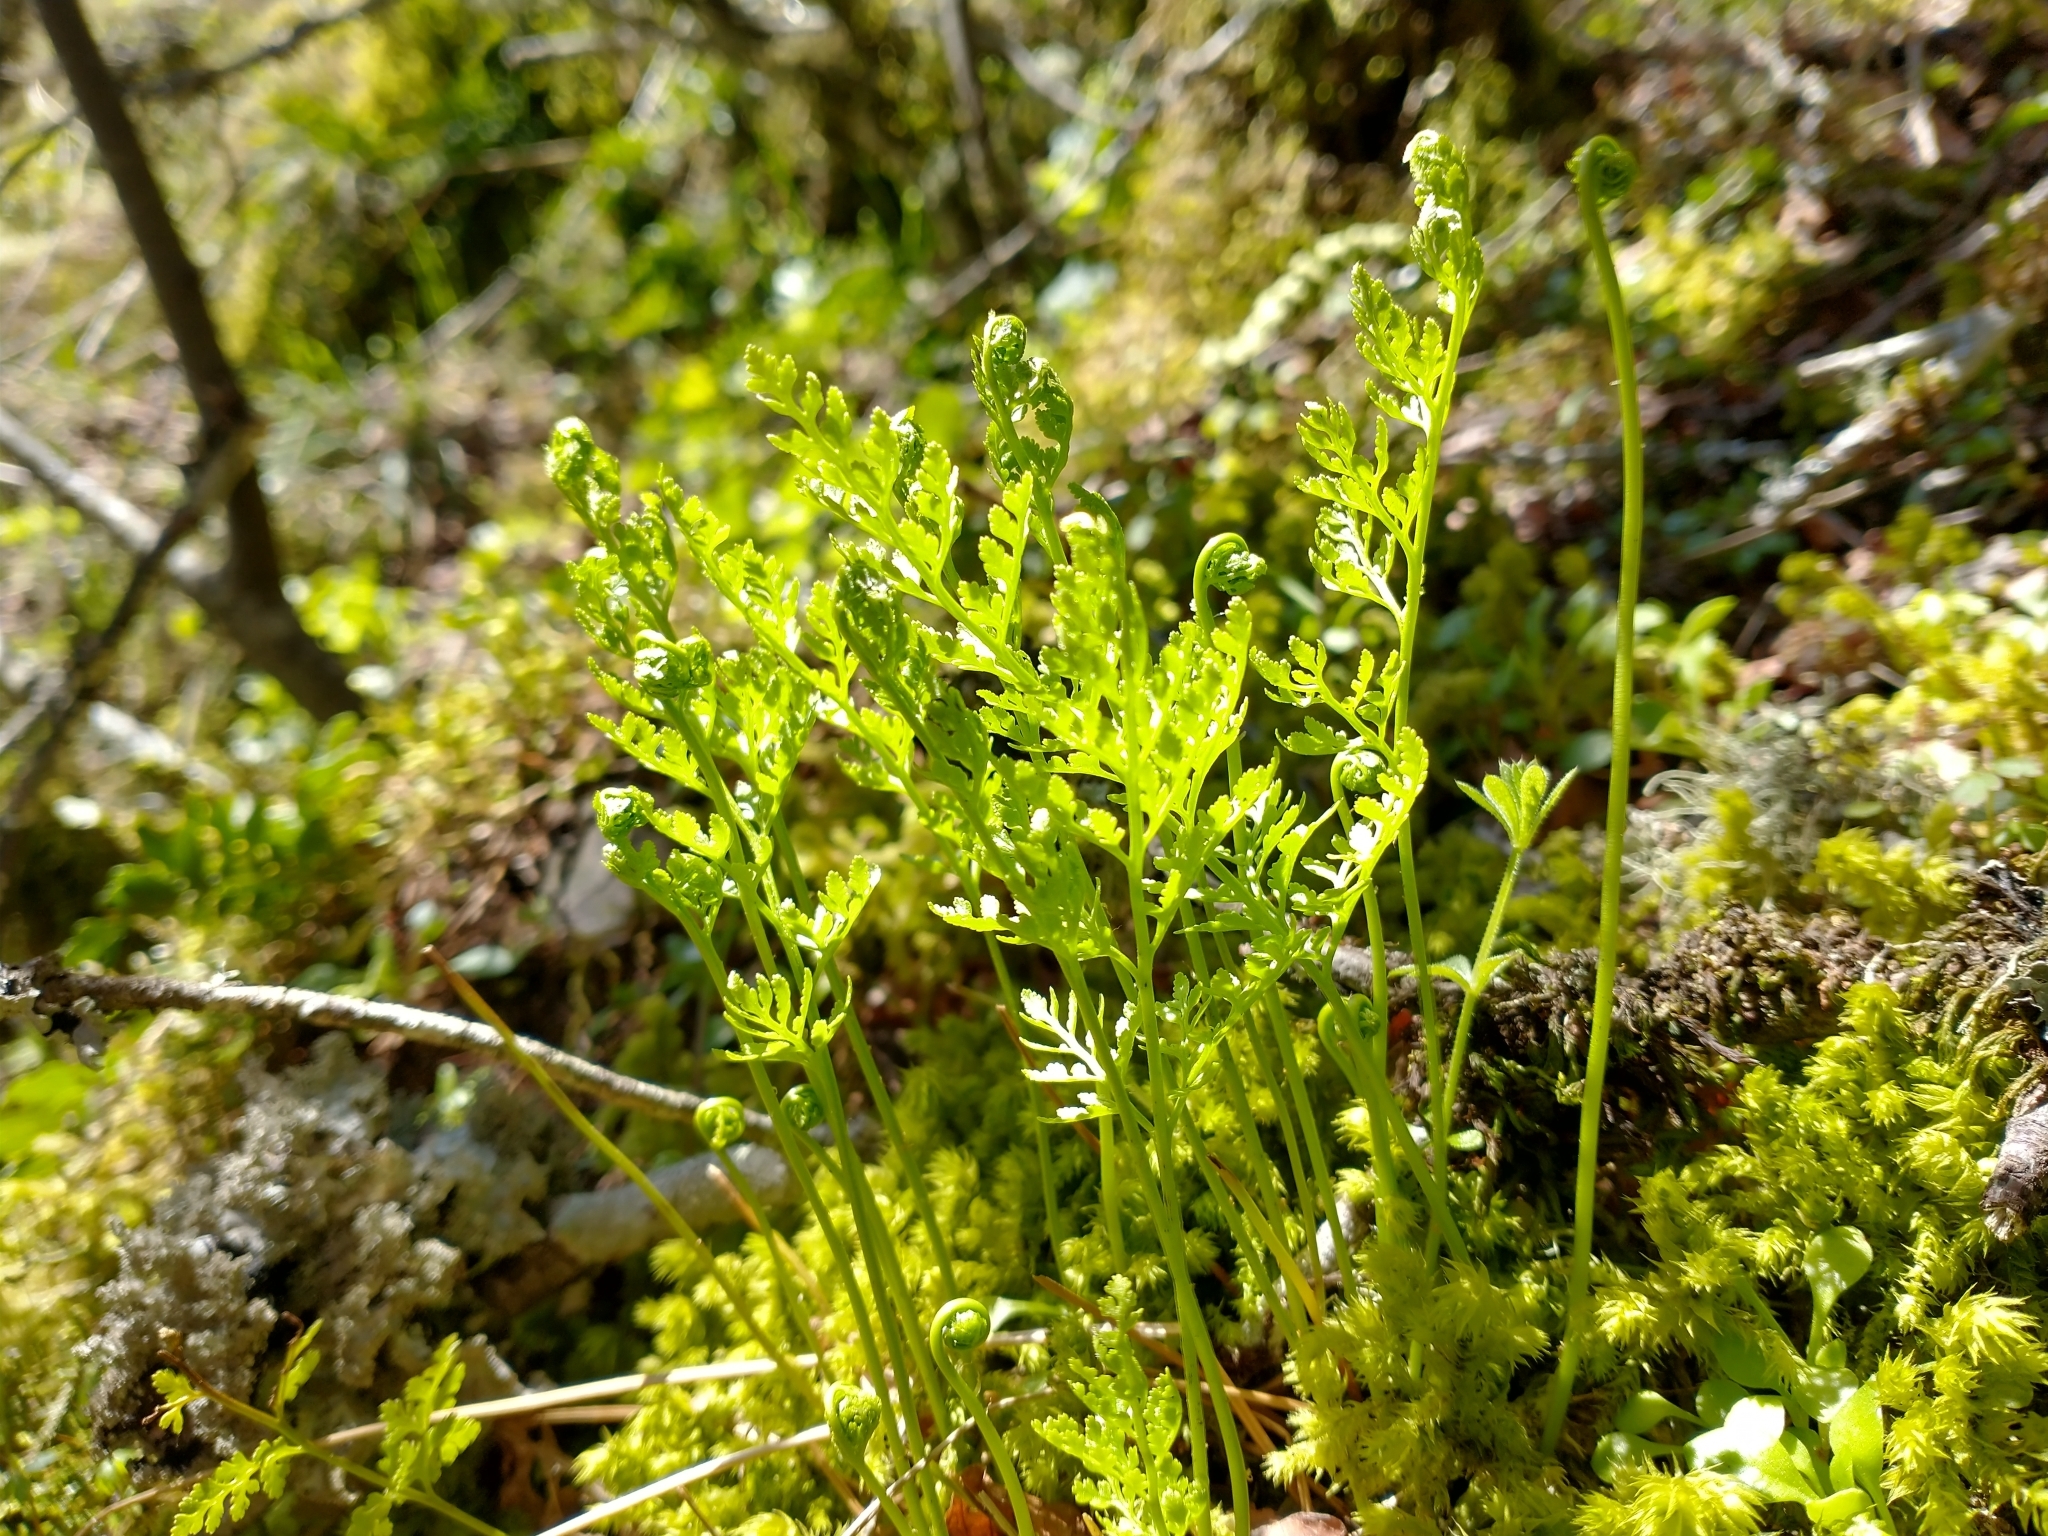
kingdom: Plantae
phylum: Tracheophyta
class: Polypodiopsida
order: Polypodiales
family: Pteridaceae
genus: Cryptogramma
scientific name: Cryptogramma acrostichoides
